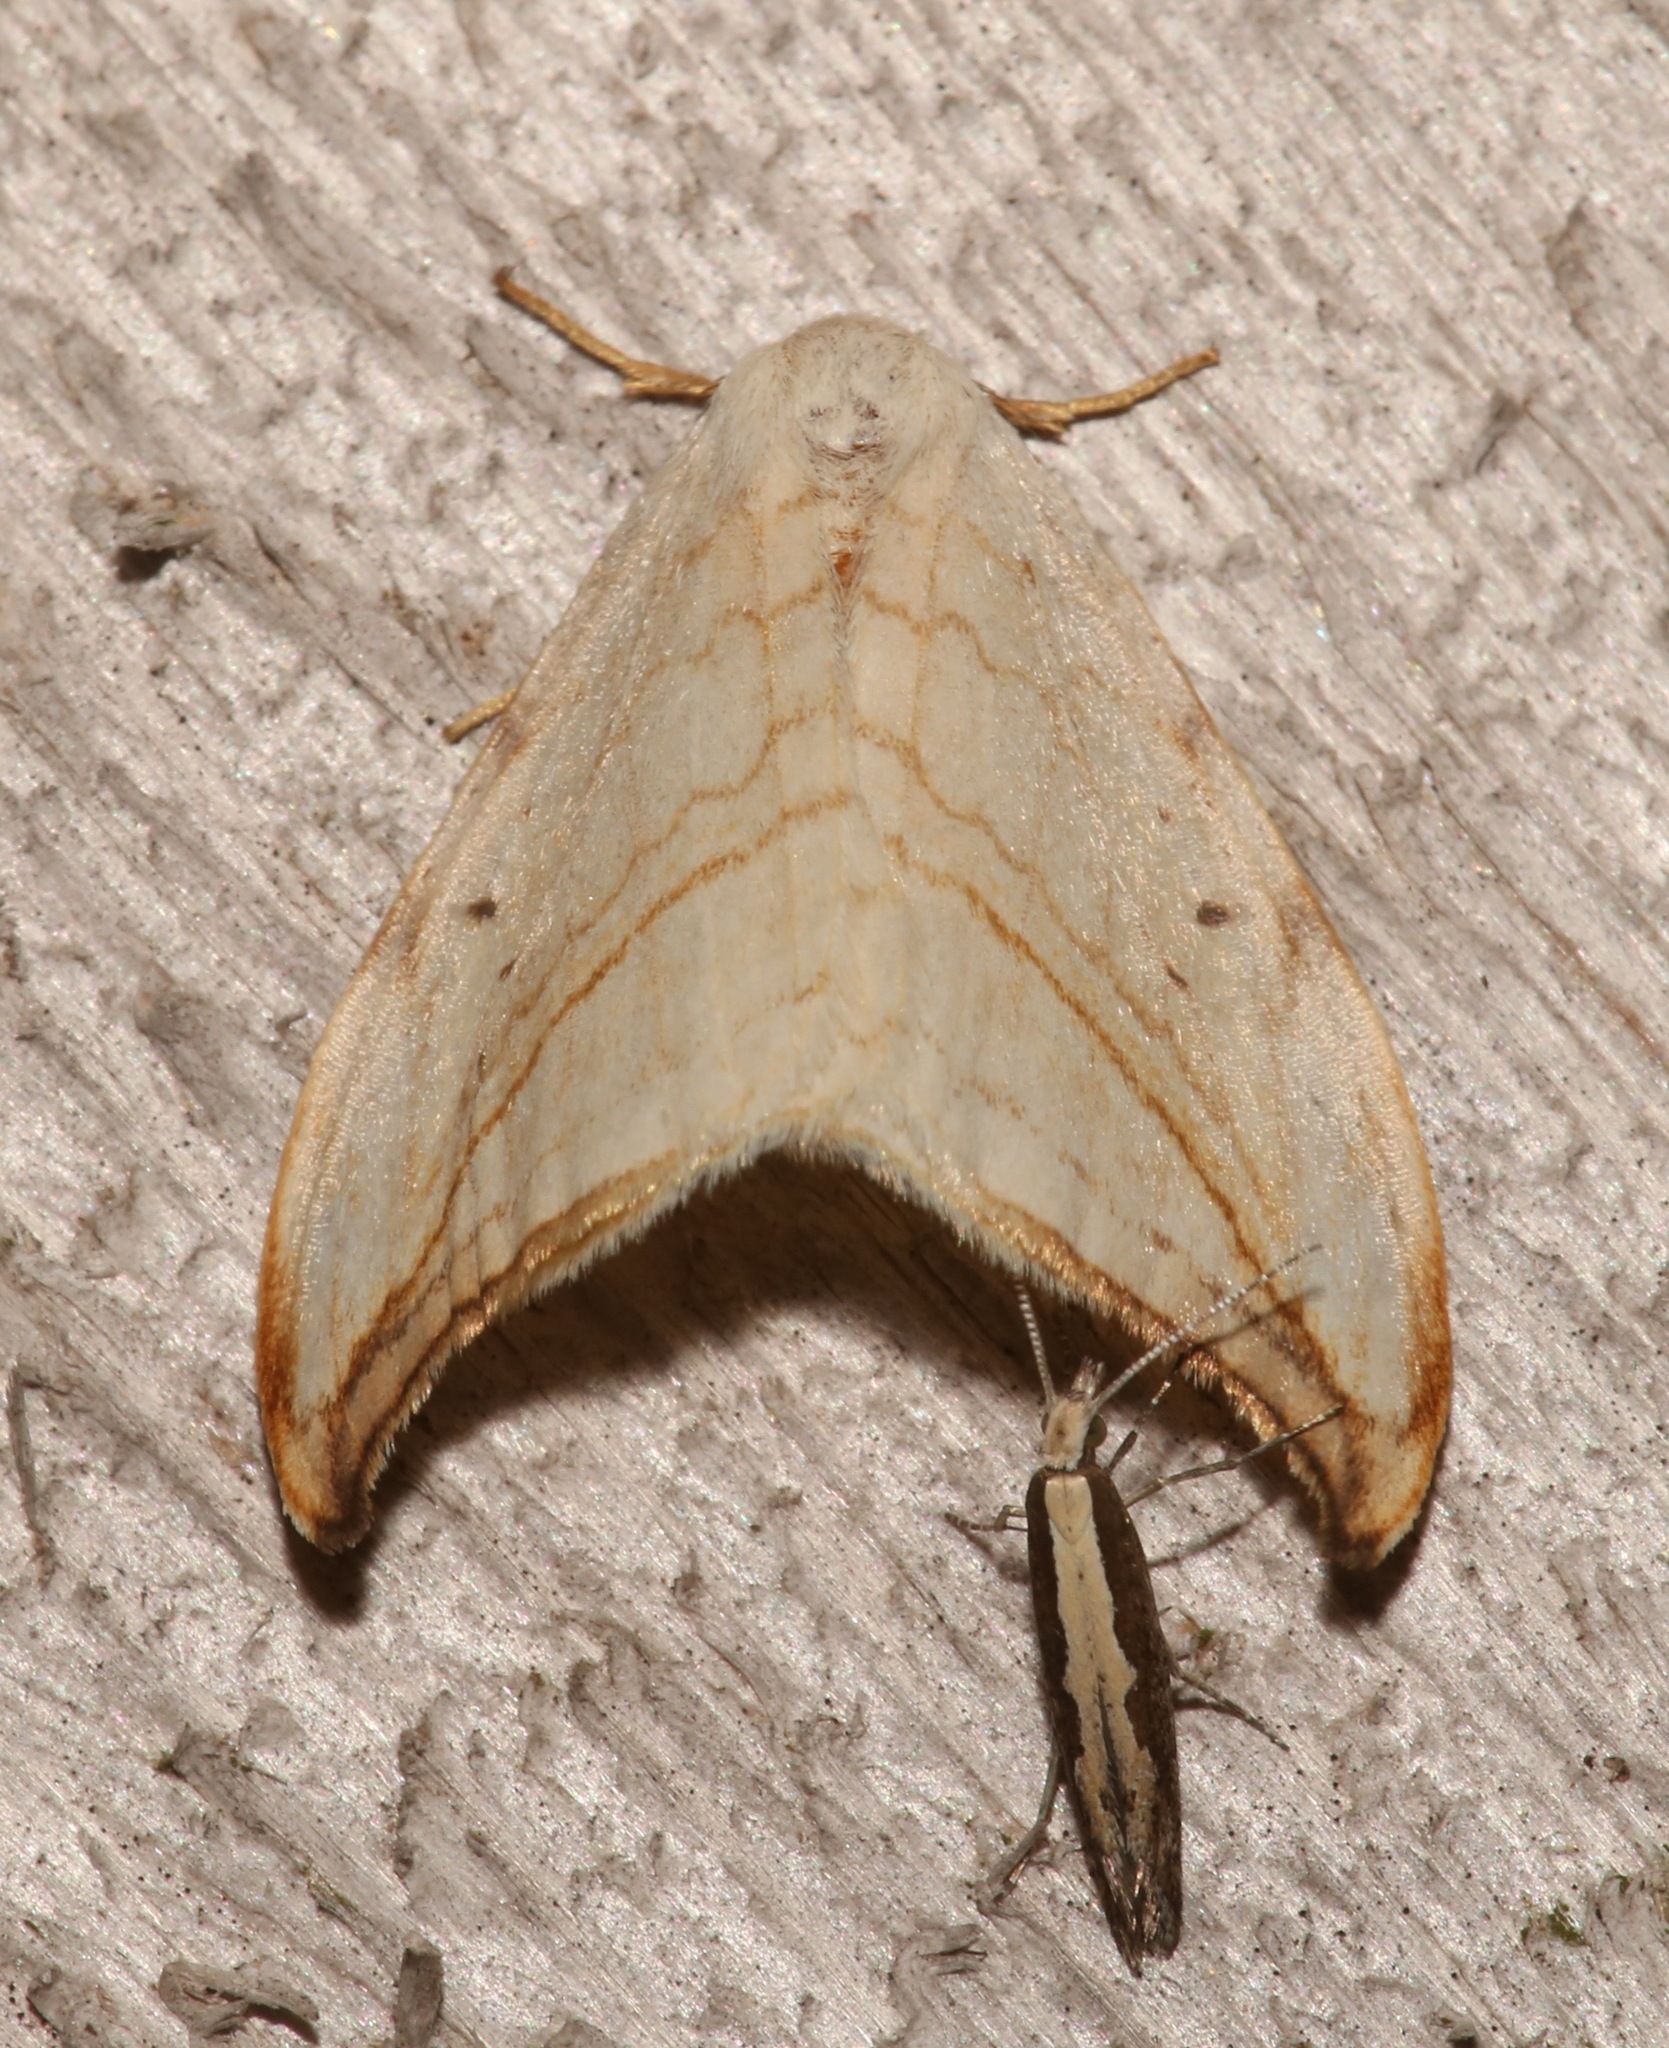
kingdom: Animalia
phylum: Arthropoda
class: Insecta
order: Lepidoptera
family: Drepanidae
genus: Drepana
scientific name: Drepana arcuata
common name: Arched hooktip moth
